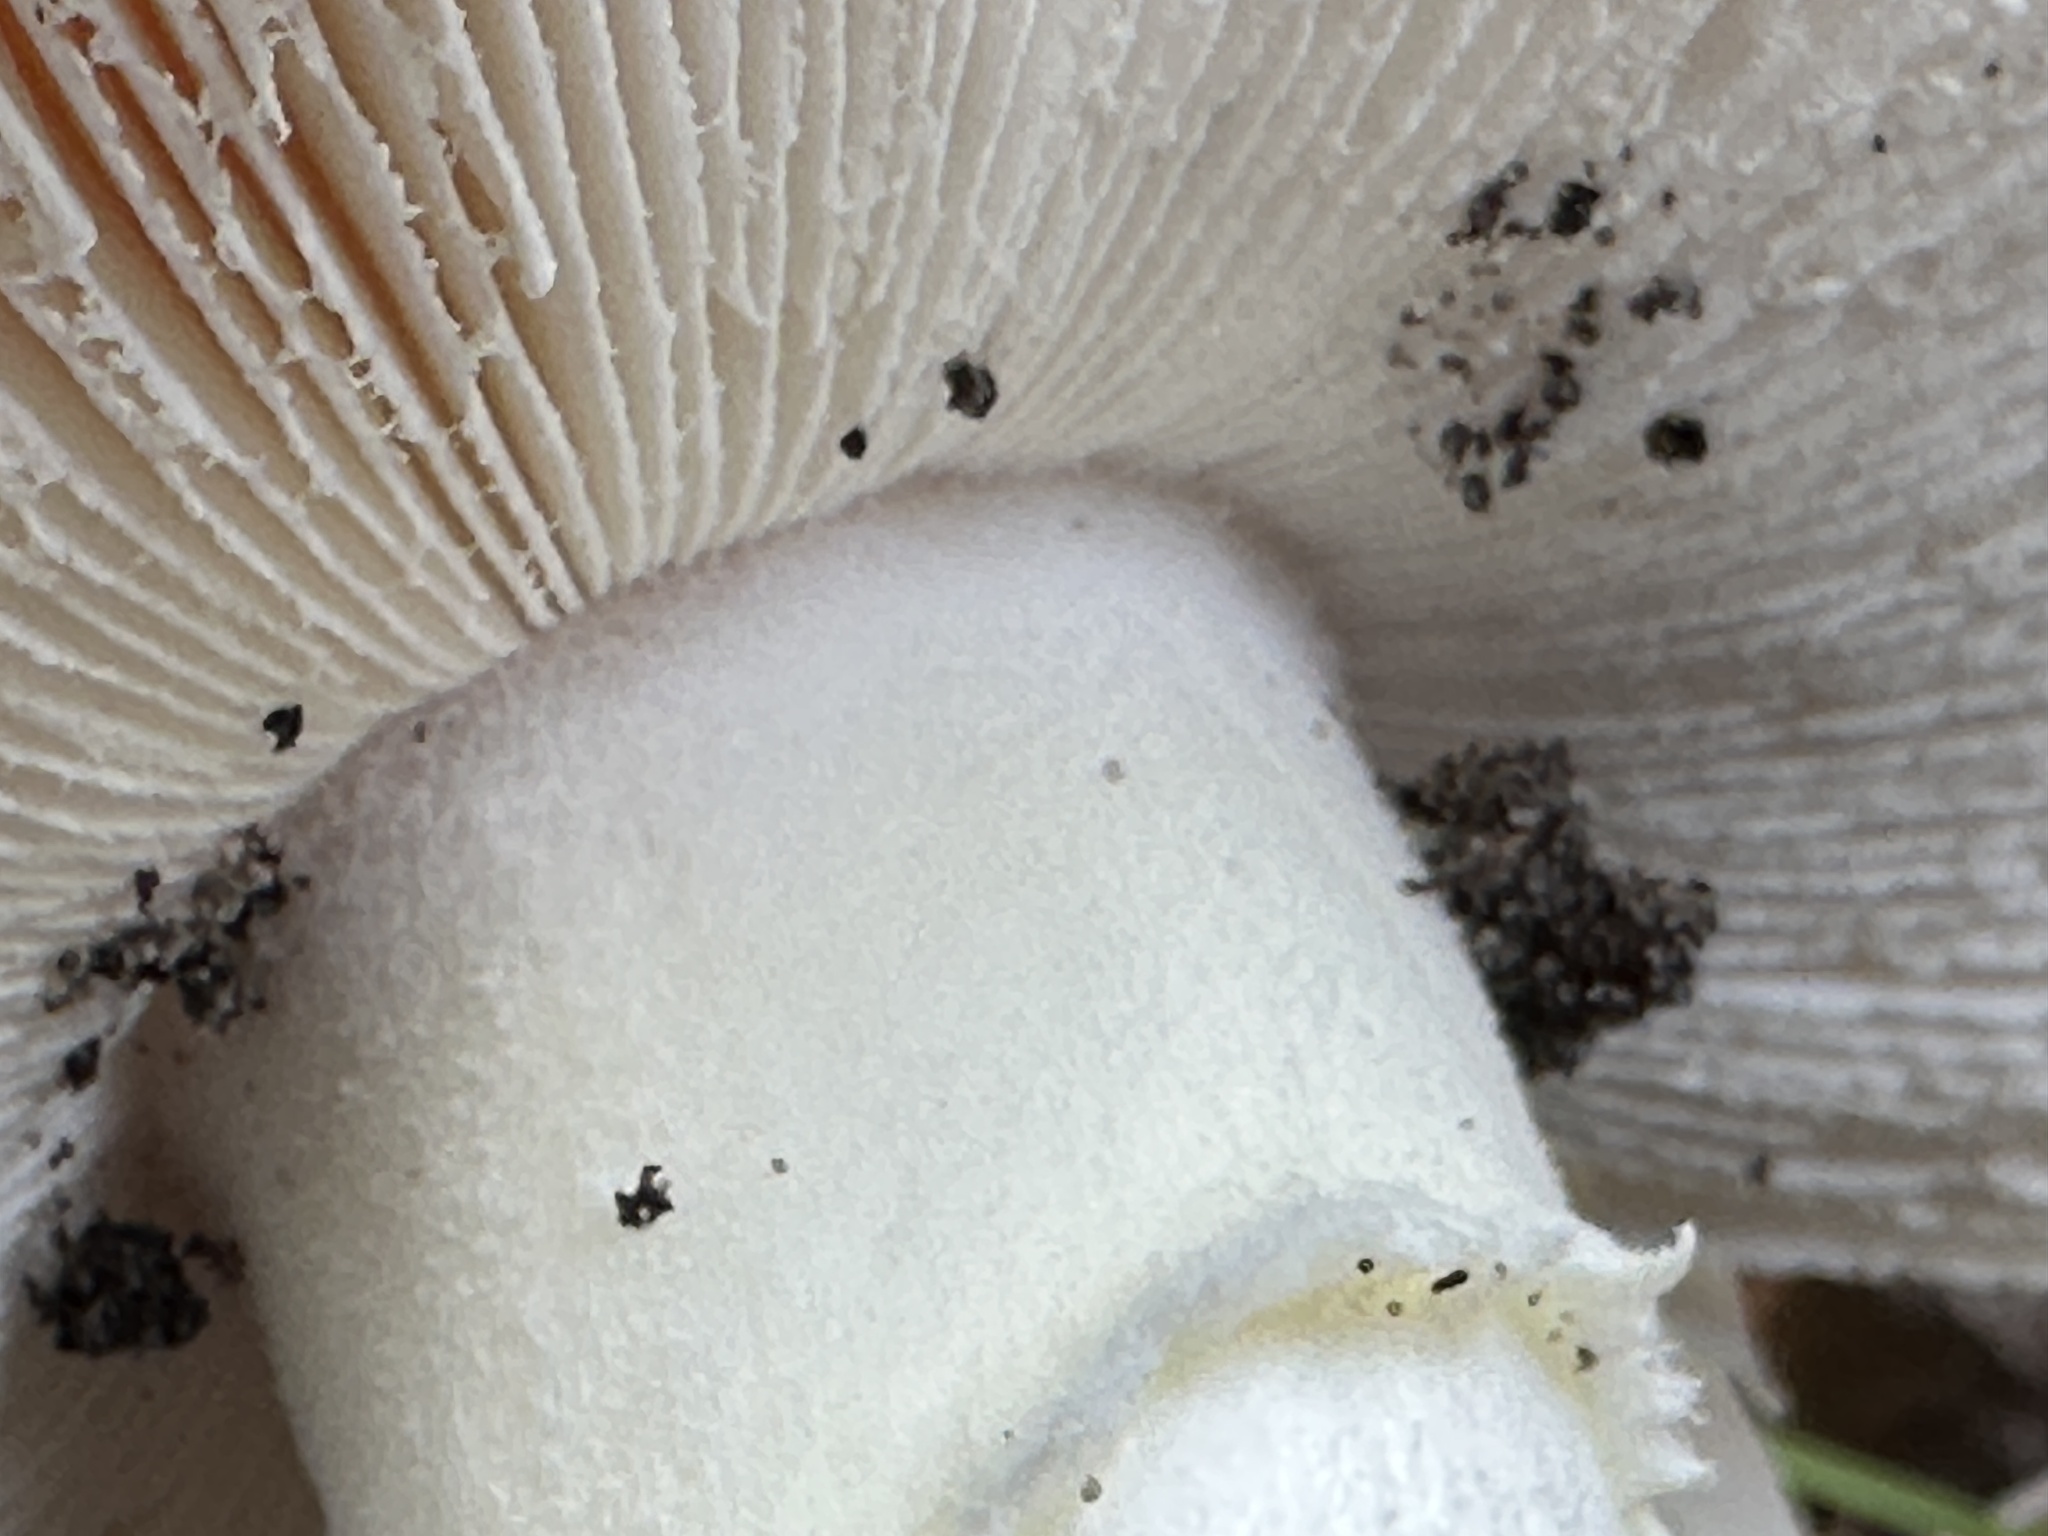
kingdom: Fungi
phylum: Basidiomycota
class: Agaricomycetes
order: Agaricales
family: Amanitaceae
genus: Amanita
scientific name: Amanita muscaria
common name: Fly agaric
